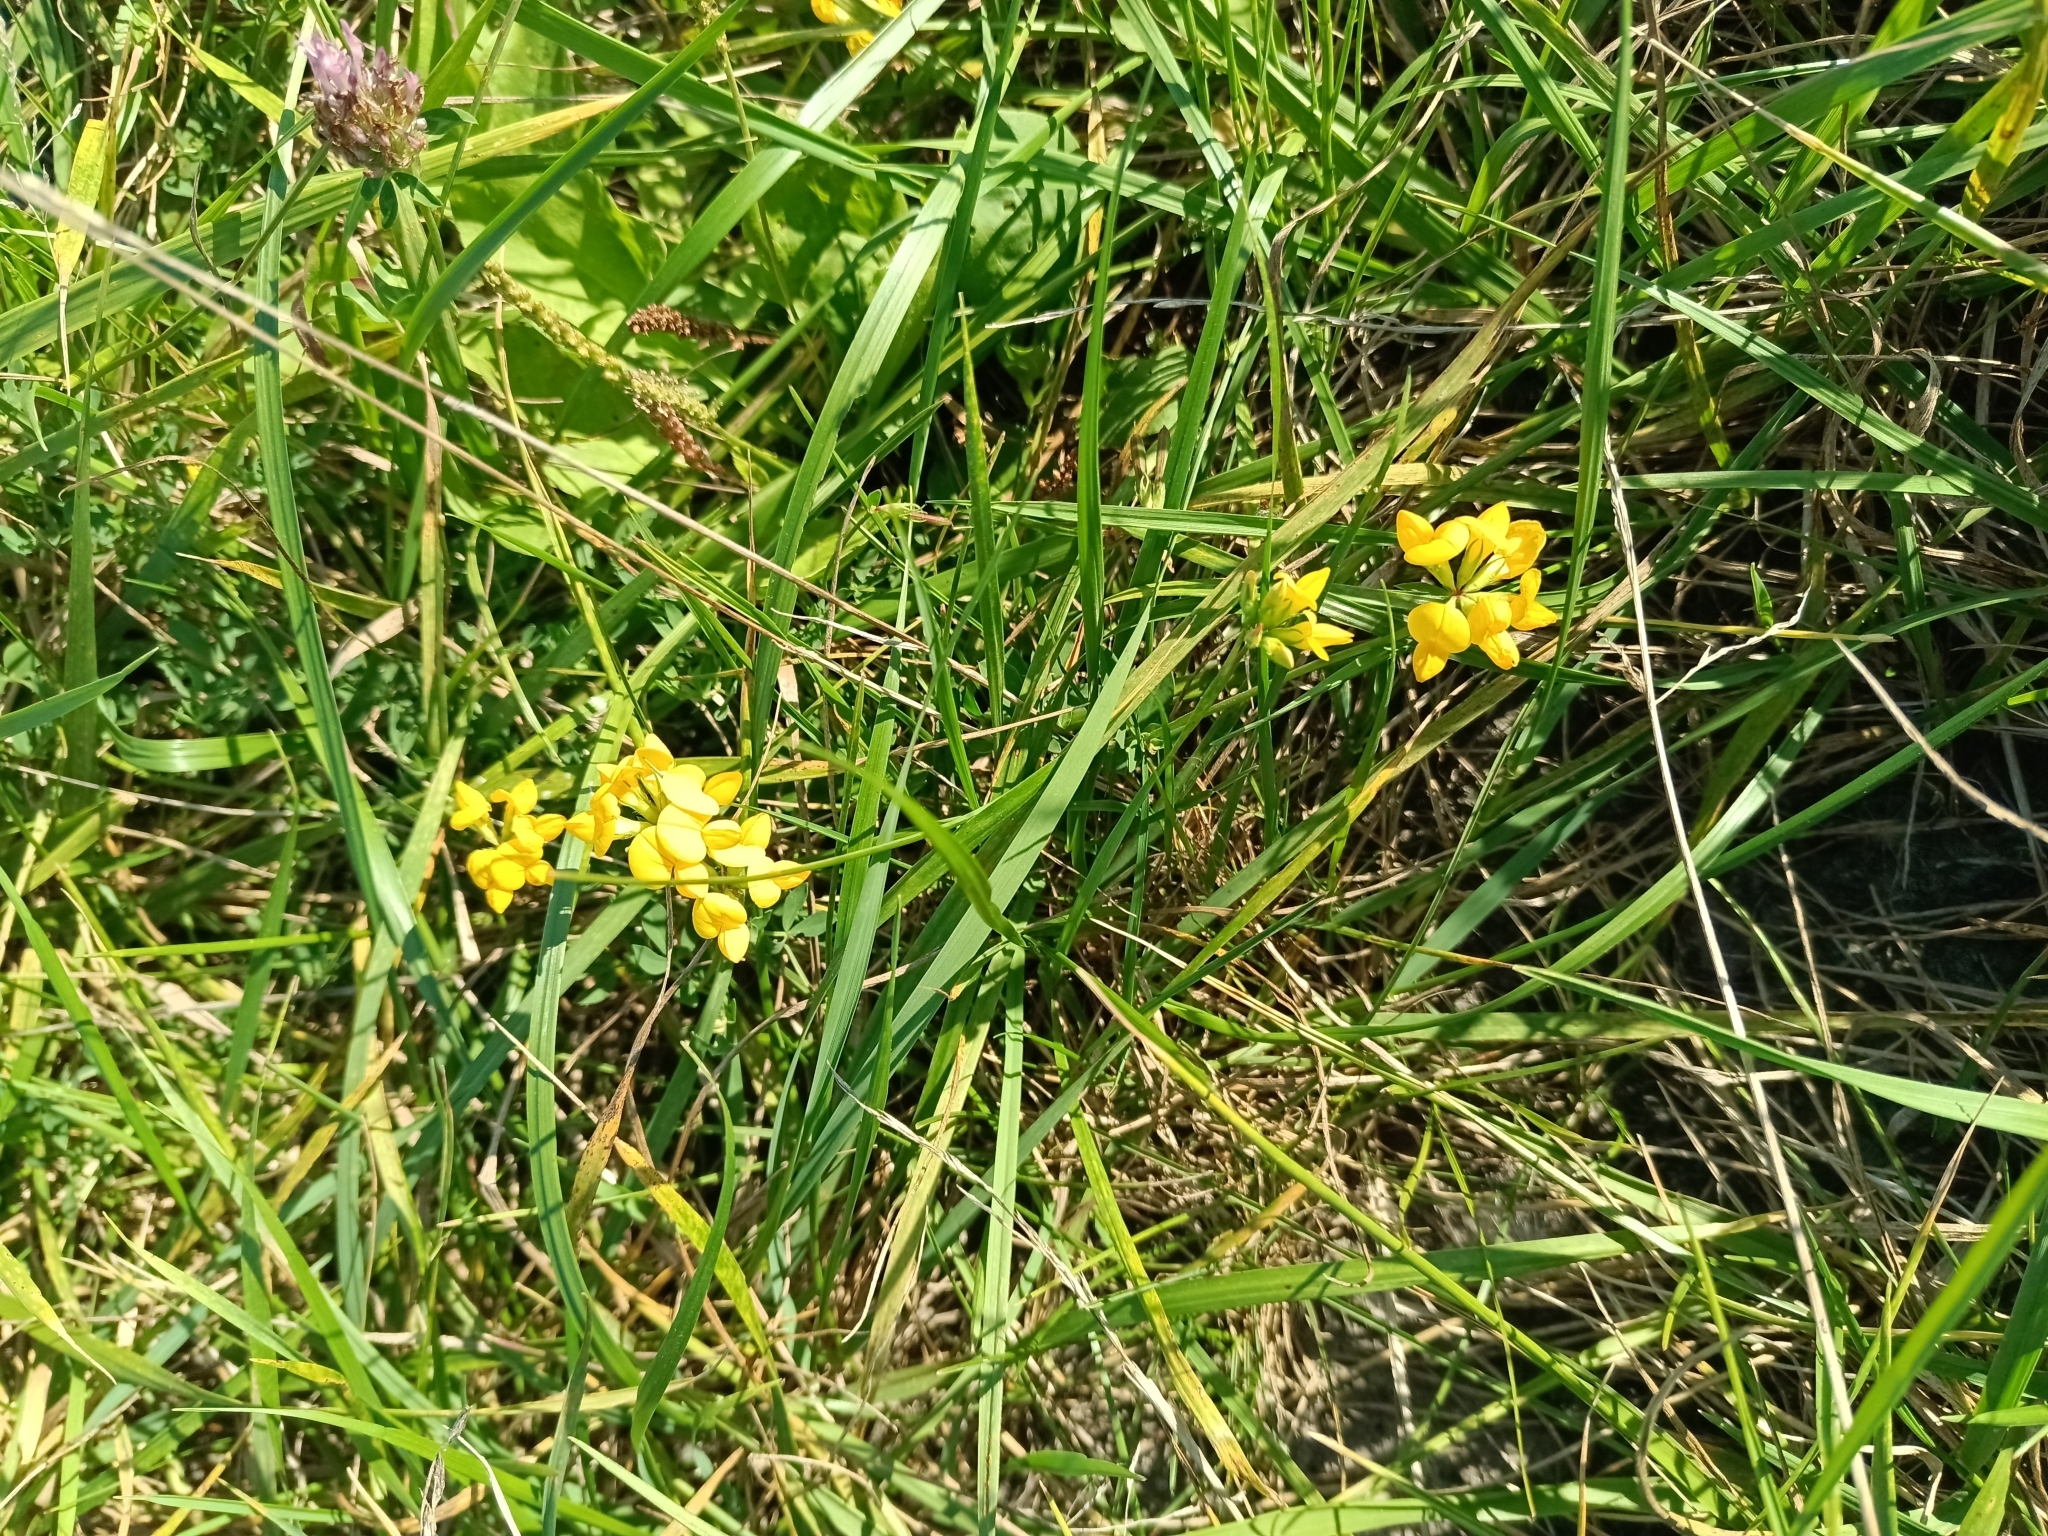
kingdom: Plantae
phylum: Tracheophyta
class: Magnoliopsida
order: Fabales
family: Fabaceae
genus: Lotus
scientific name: Lotus corniculatus
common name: Common bird's-foot-trefoil
